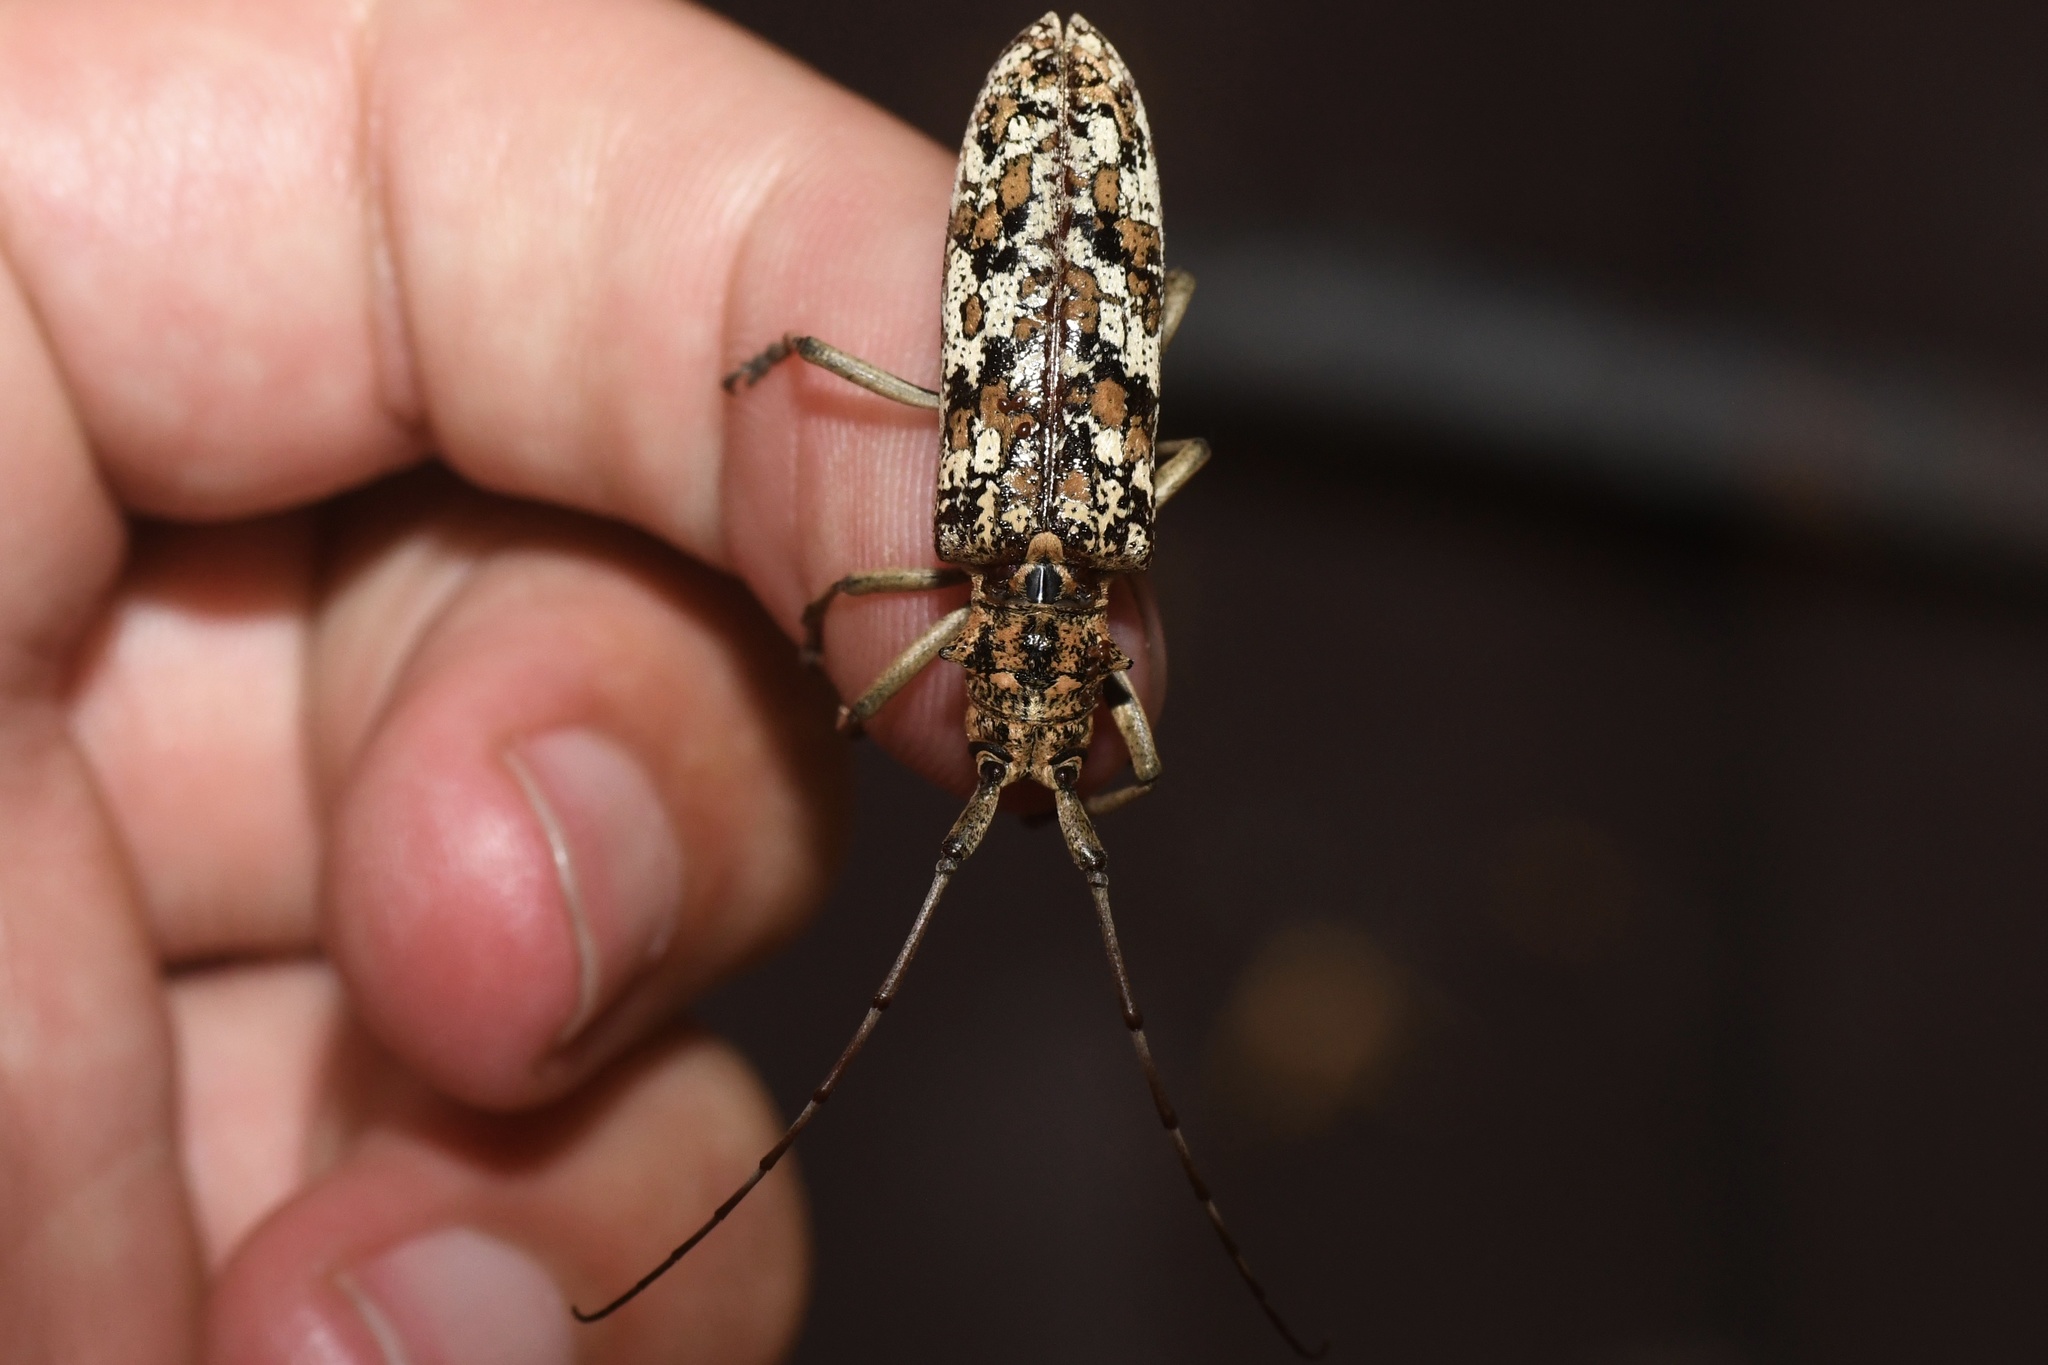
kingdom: Animalia
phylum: Arthropoda
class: Insecta
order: Coleoptera
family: Cerambycidae
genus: Monochamus
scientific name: Monochamus marmorator
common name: Balsam fir sawyer
